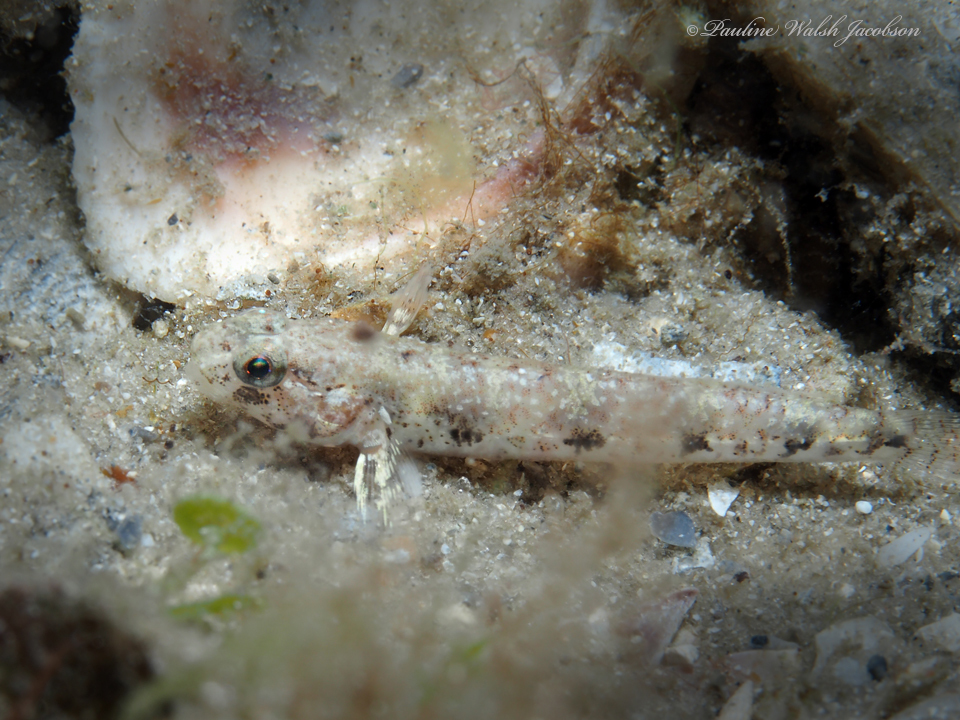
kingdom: Animalia
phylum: Chordata
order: Perciformes
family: Gobiidae
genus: Ctenogobius
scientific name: Ctenogobius stigmaturus
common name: Spottail goby
